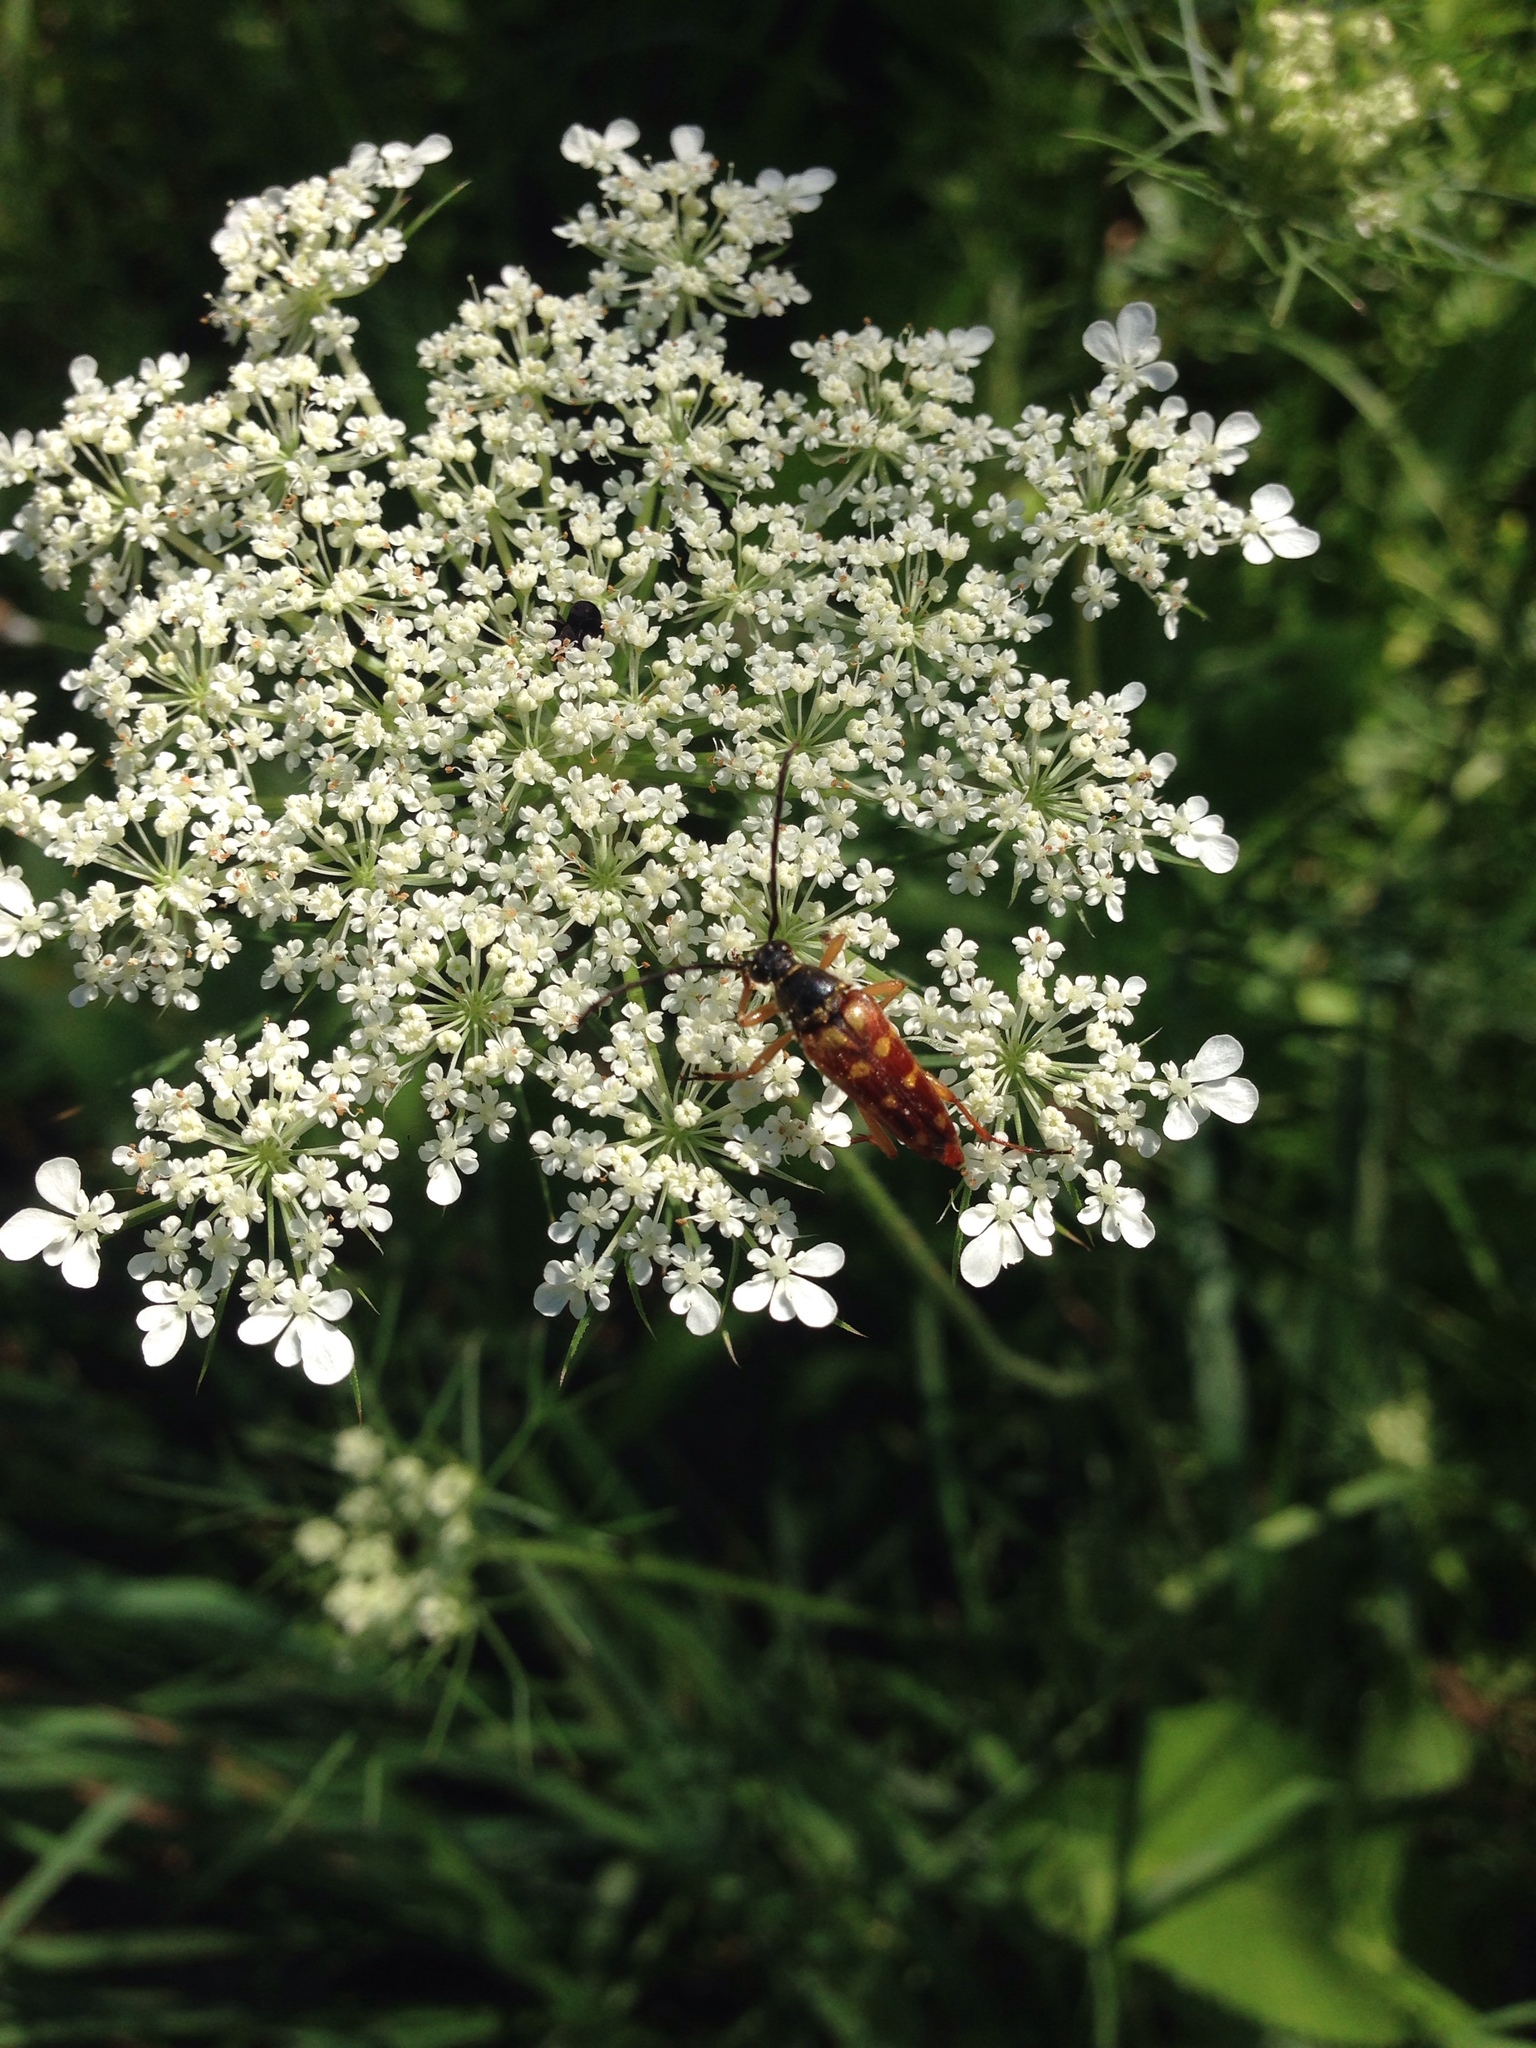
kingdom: Animalia
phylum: Arthropoda
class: Insecta
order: Coleoptera
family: Cerambycidae
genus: Typocerus
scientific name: Typocerus velutinus
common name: Banded longhorn beetle
